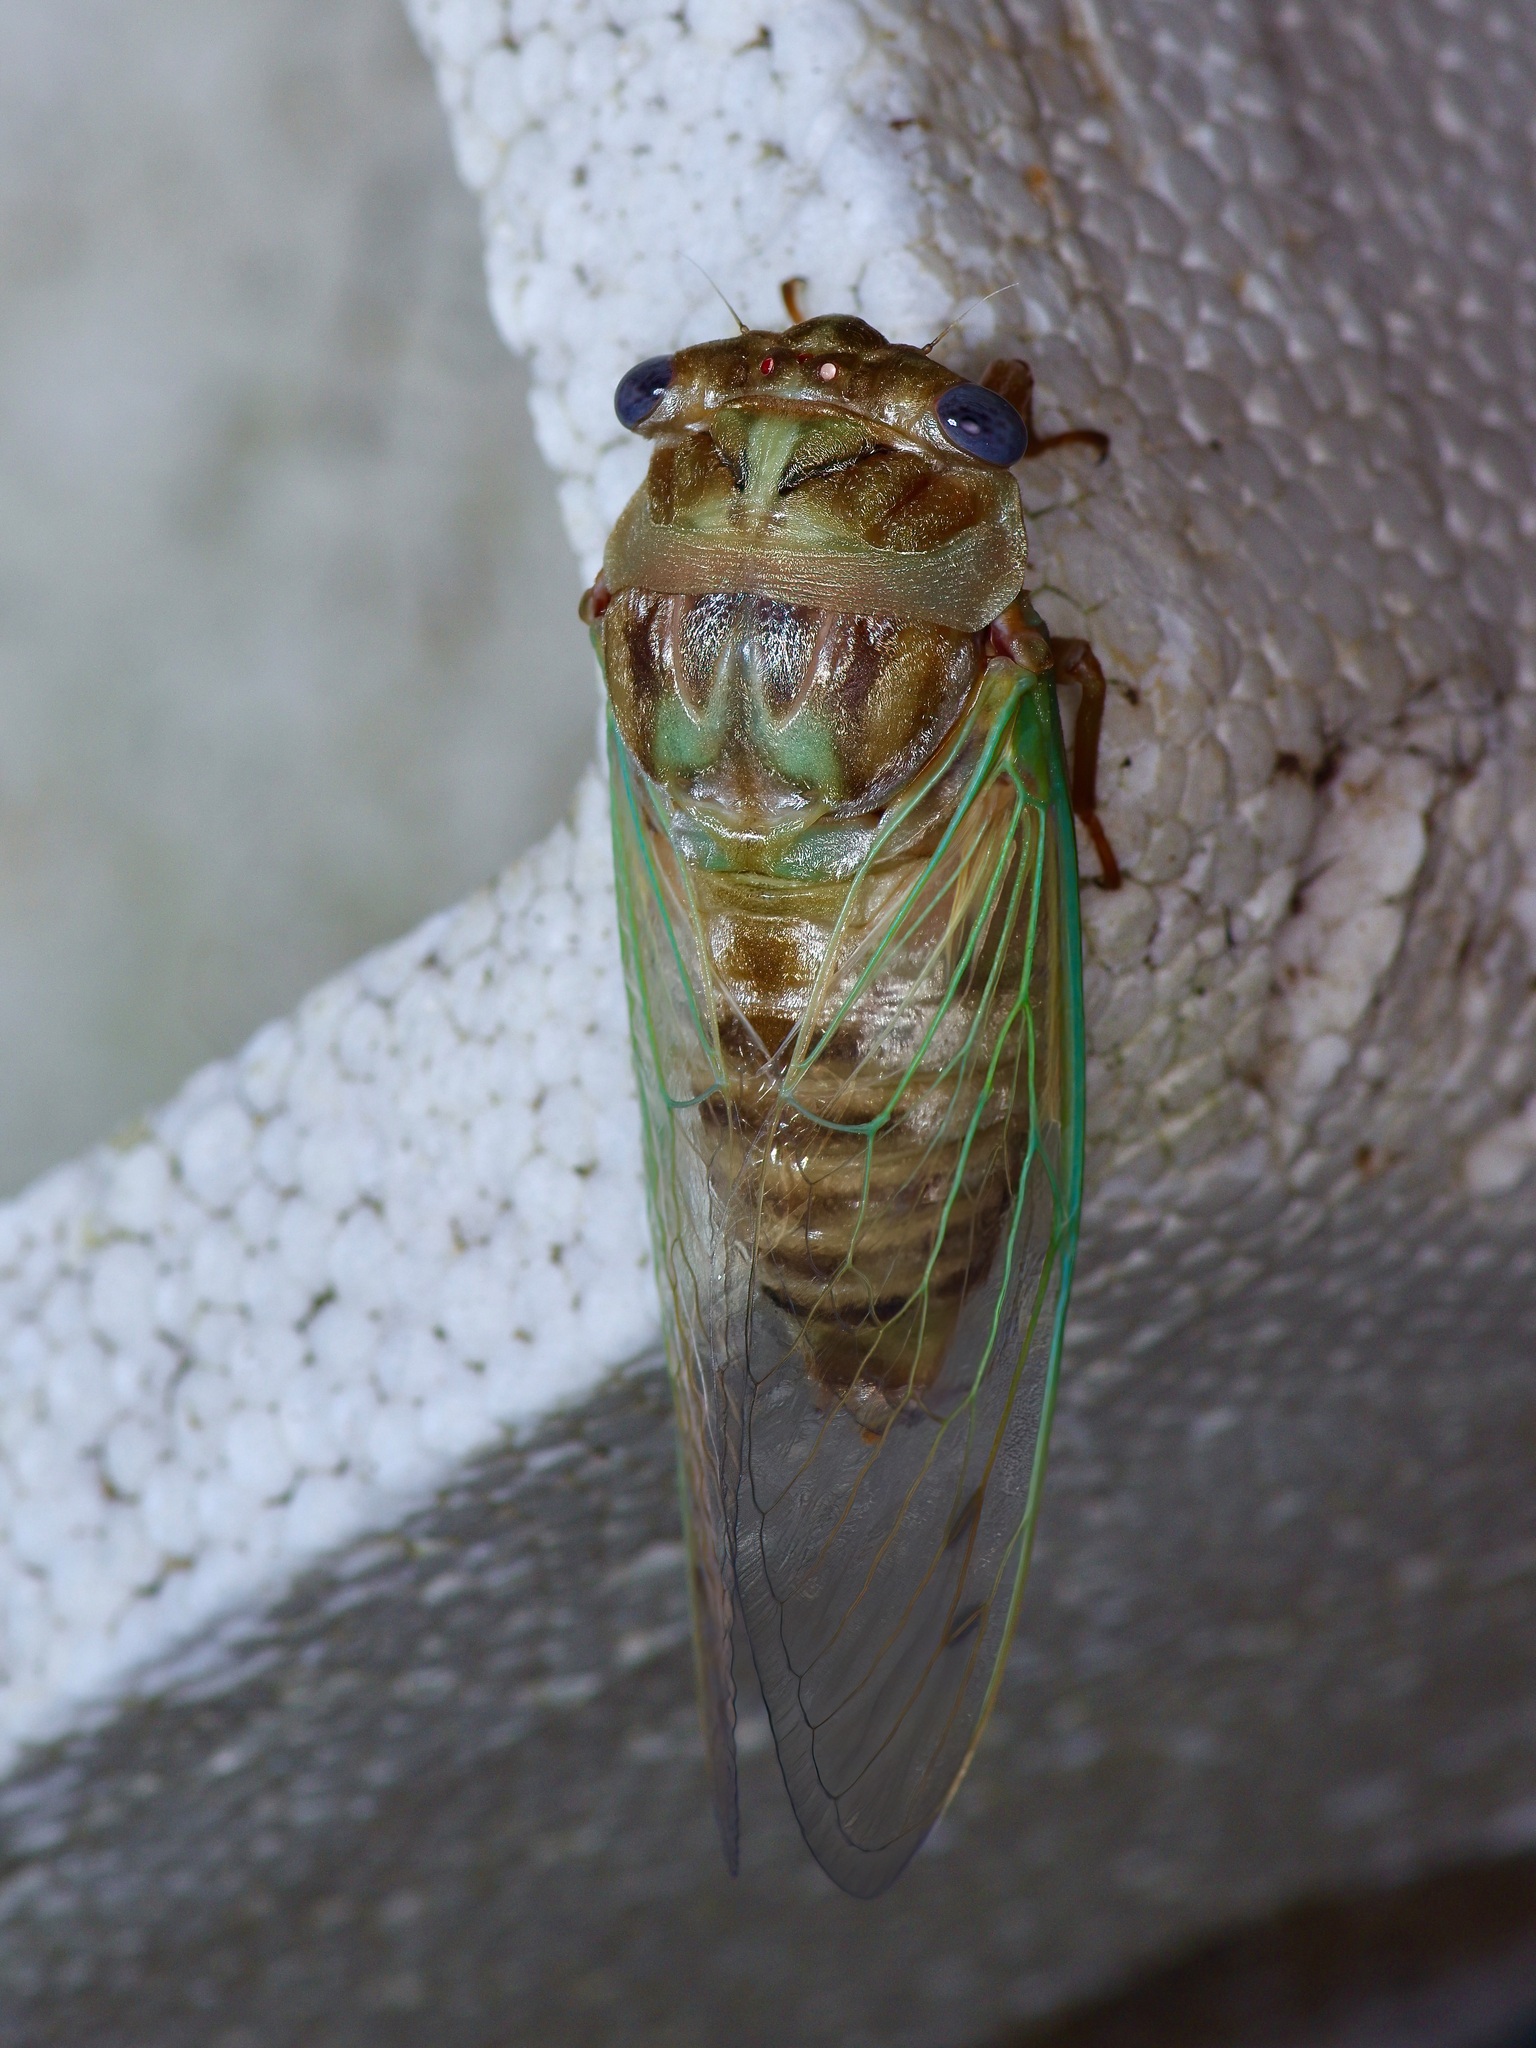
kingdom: Animalia
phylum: Arthropoda
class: Insecta
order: Hemiptera
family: Cicadidae
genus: Megatibicen
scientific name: Megatibicen resh
